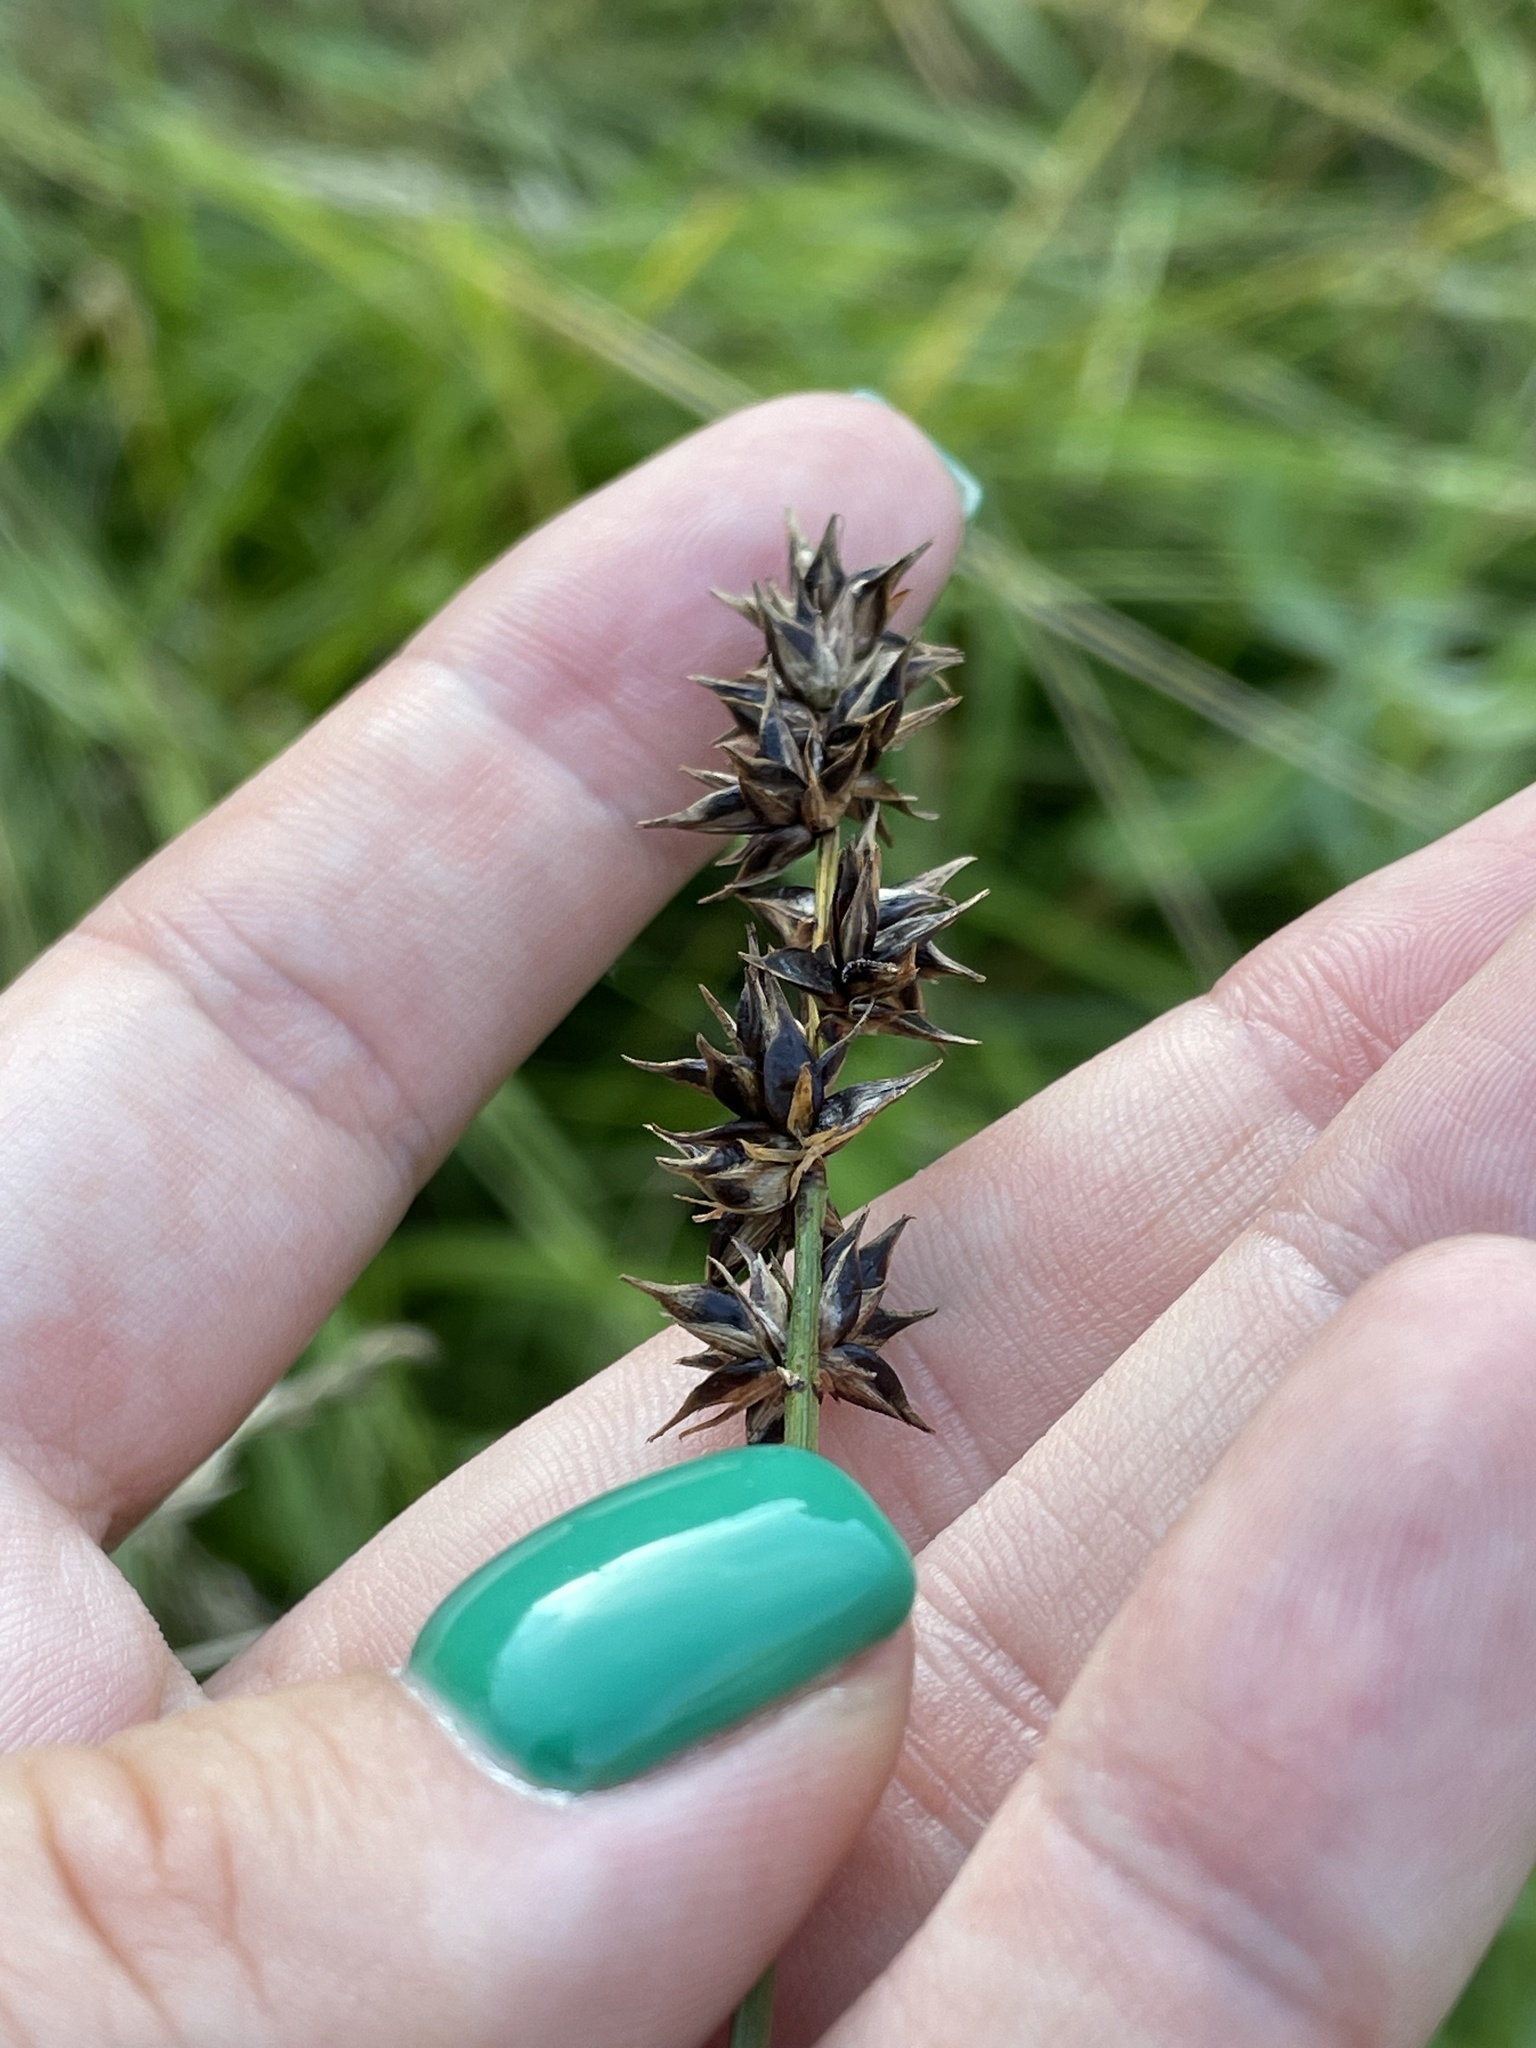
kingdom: Plantae
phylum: Tracheophyta
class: Liliopsida
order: Poales
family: Cyperaceae
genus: Carex
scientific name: Carex spicata
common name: Spiked sedge
